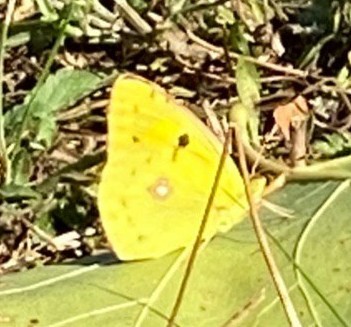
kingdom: Animalia
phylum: Arthropoda
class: Insecta
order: Lepidoptera
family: Pieridae
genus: Colias
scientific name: Colias croceus
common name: Clouded yellow
